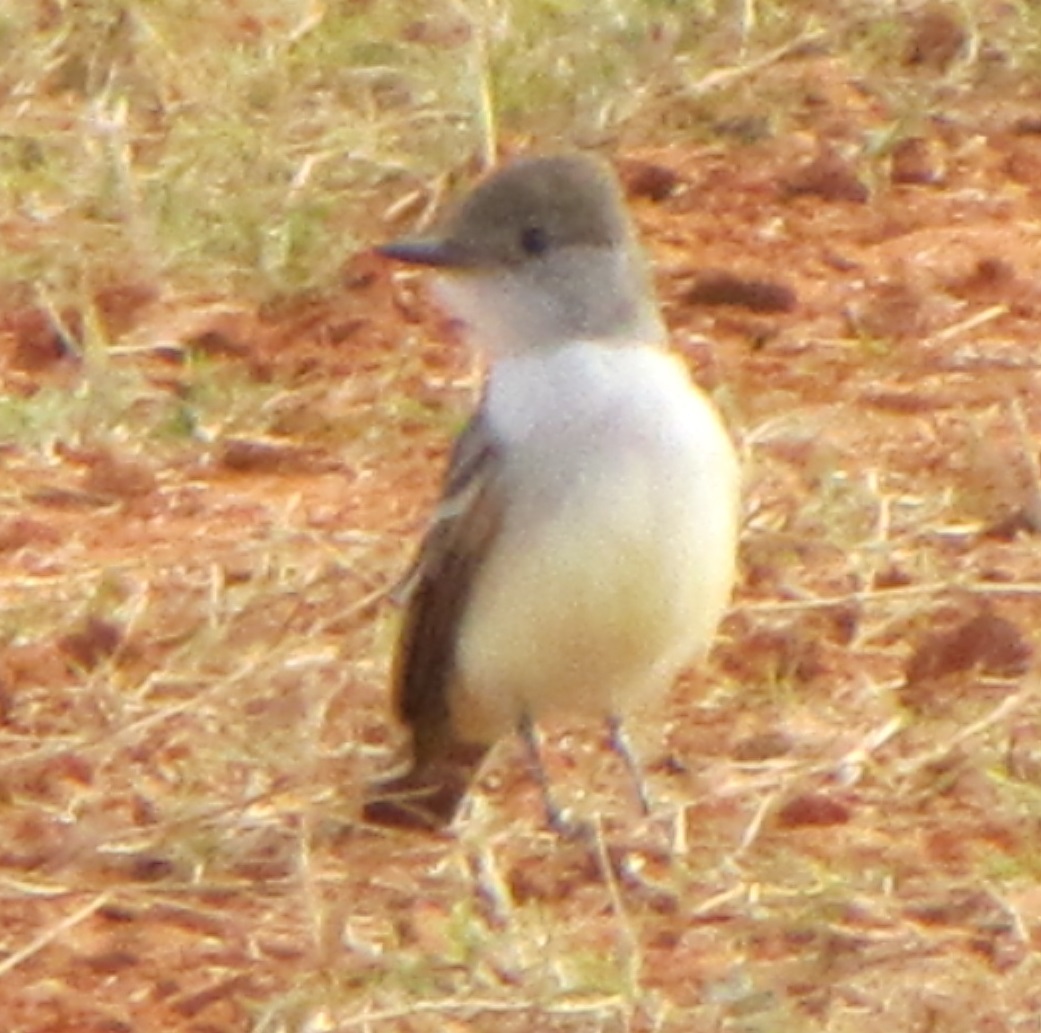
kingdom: Animalia
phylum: Chordata
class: Aves
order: Passeriformes
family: Tyrannidae
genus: Myiarchus
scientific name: Myiarchus cinerascens
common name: Ash-throated flycatcher
